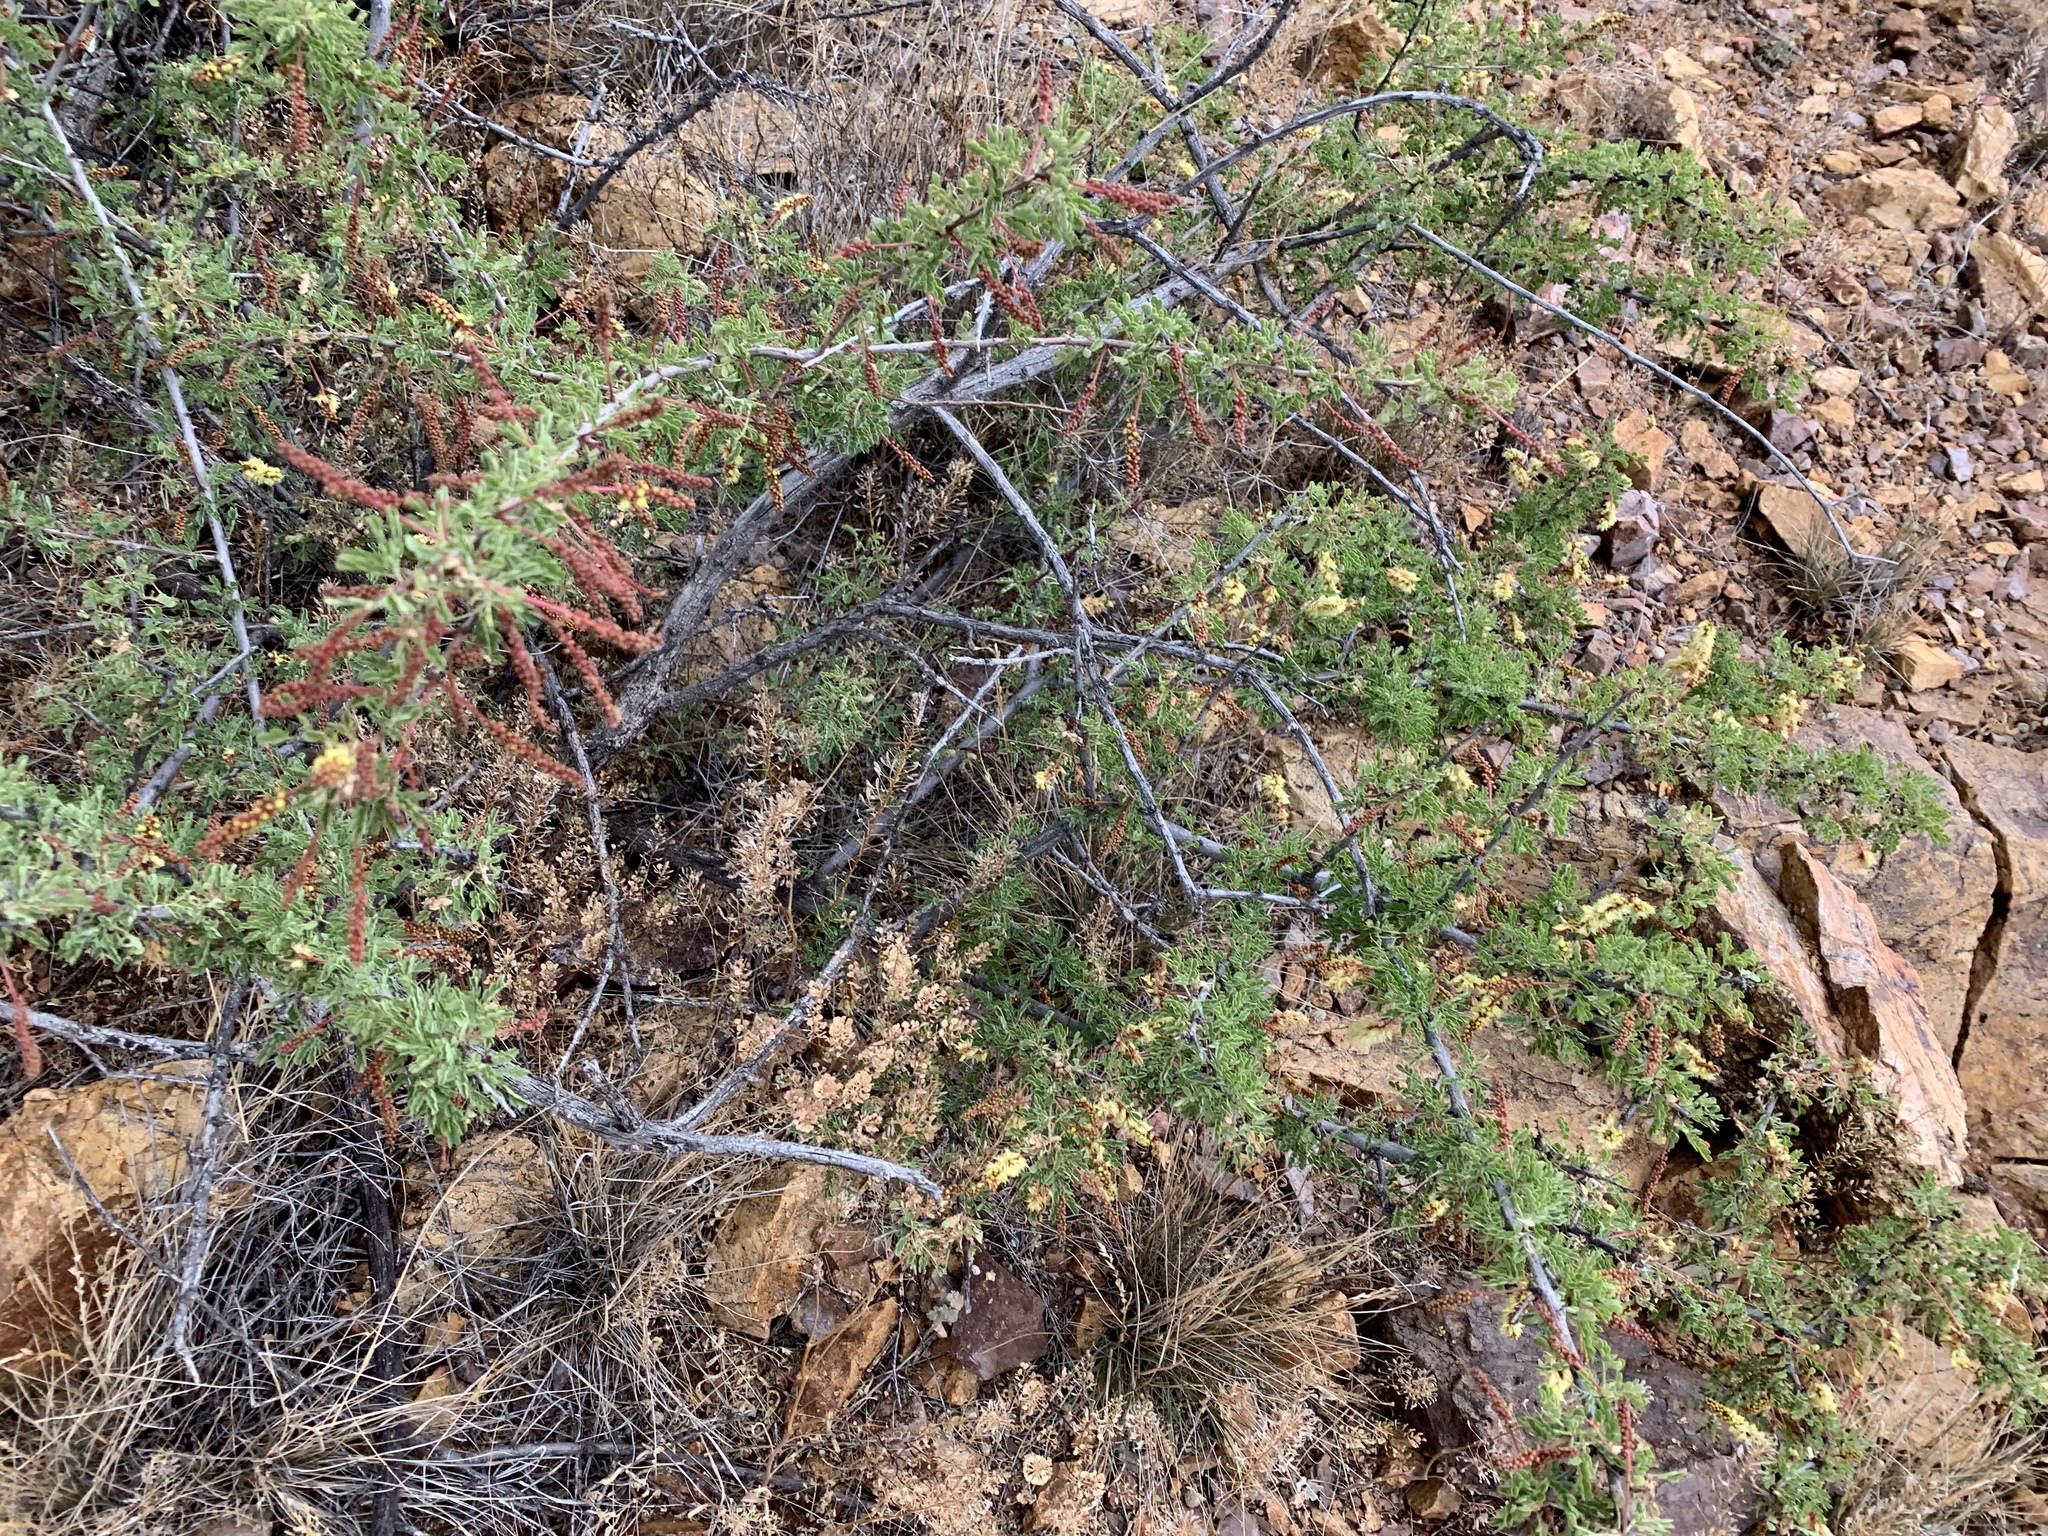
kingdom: Plantae
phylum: Tracheophyta
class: Magnoliopsida
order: Fabales
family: Fabaceae
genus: Senegalia
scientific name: Senegalia greggii
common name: Texas-mimosa
